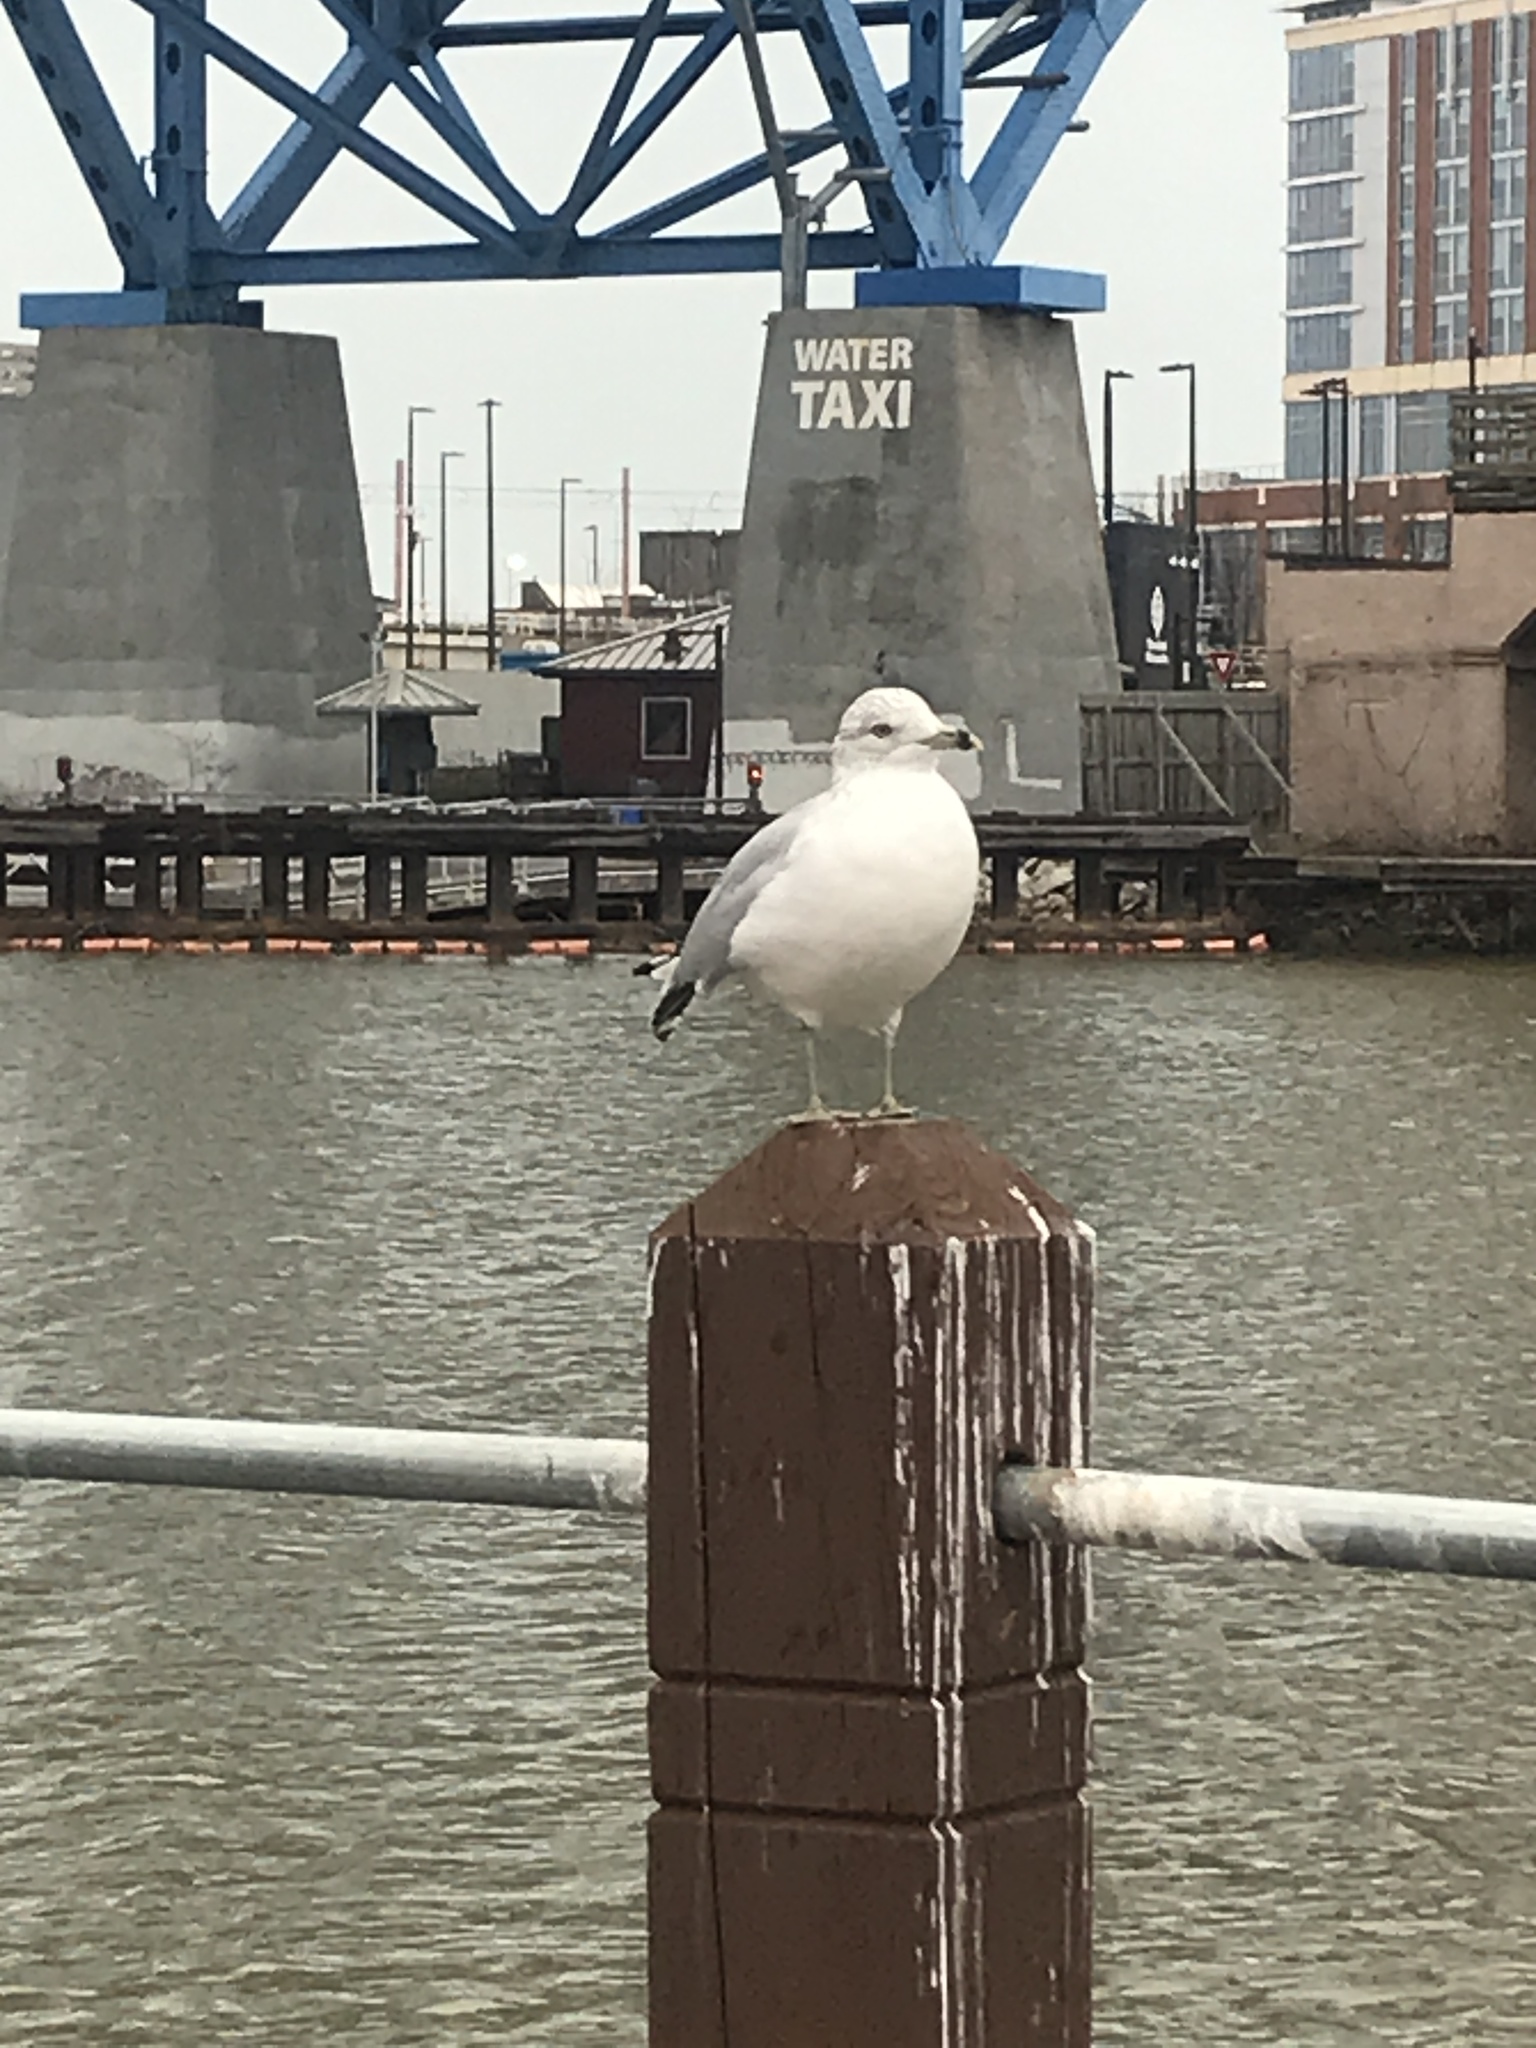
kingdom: Animalia
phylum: Chordata
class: Aves
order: Charadriiformes
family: Laridae
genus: Larus
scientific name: Larus delawarensis
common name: Ring-billed gull
